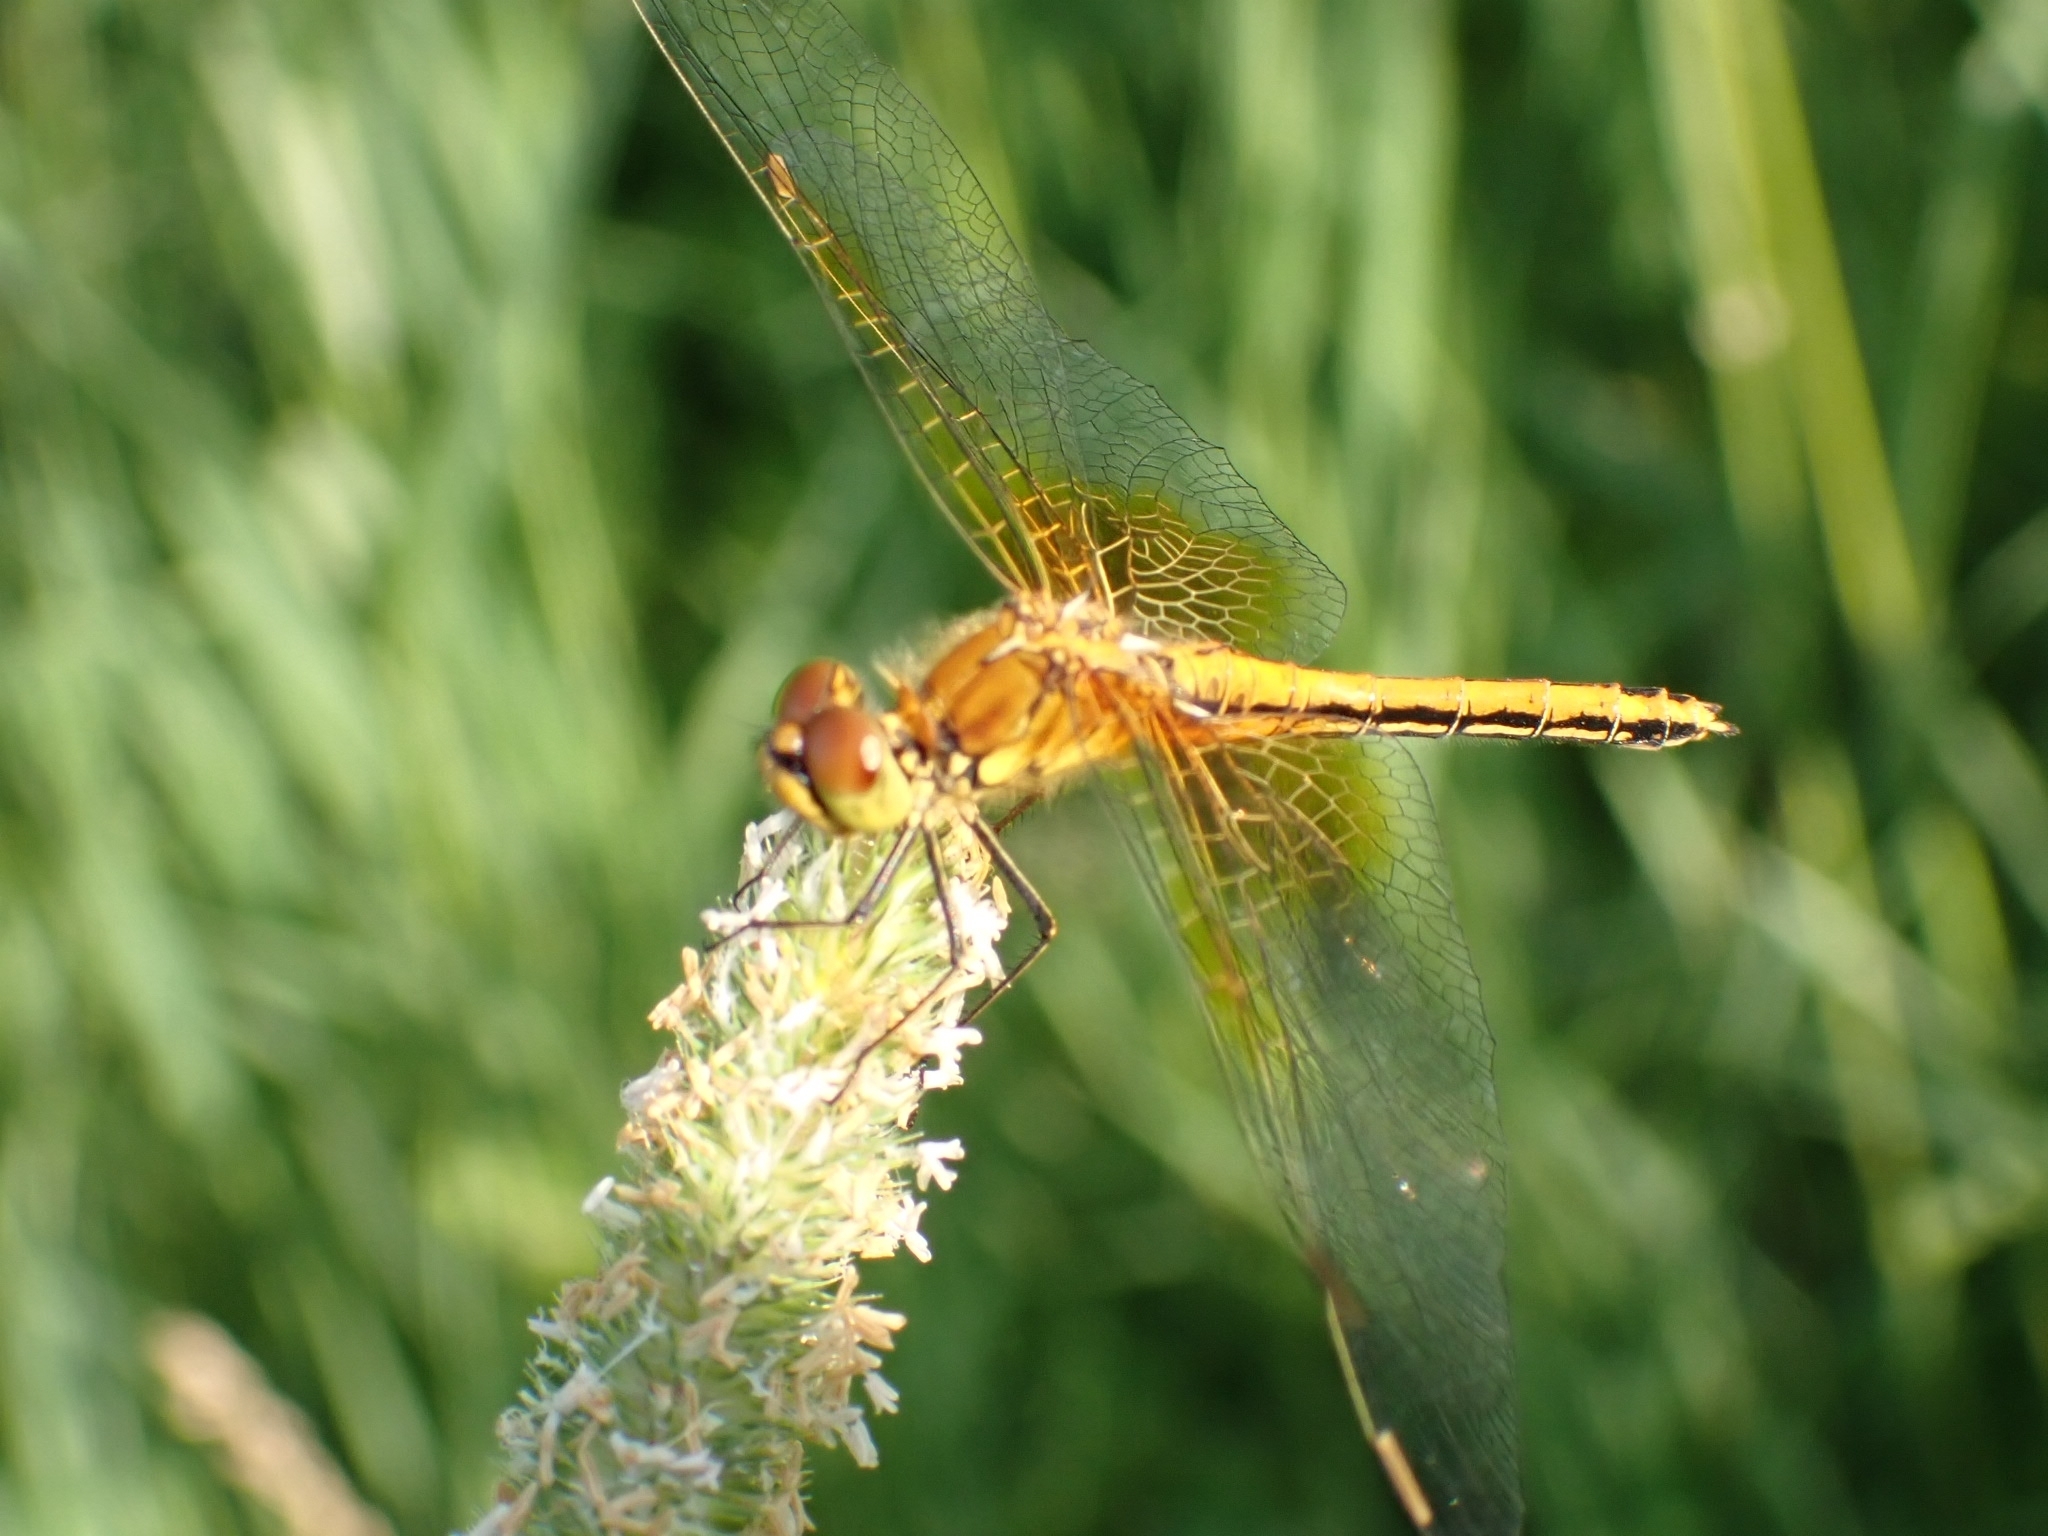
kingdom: Animalia
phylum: Arthropoda
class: Insecta
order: Odonata
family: Libellulidae
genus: Sympetrum
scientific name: Sympetrum flaveolum
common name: Yellow-winged darter
